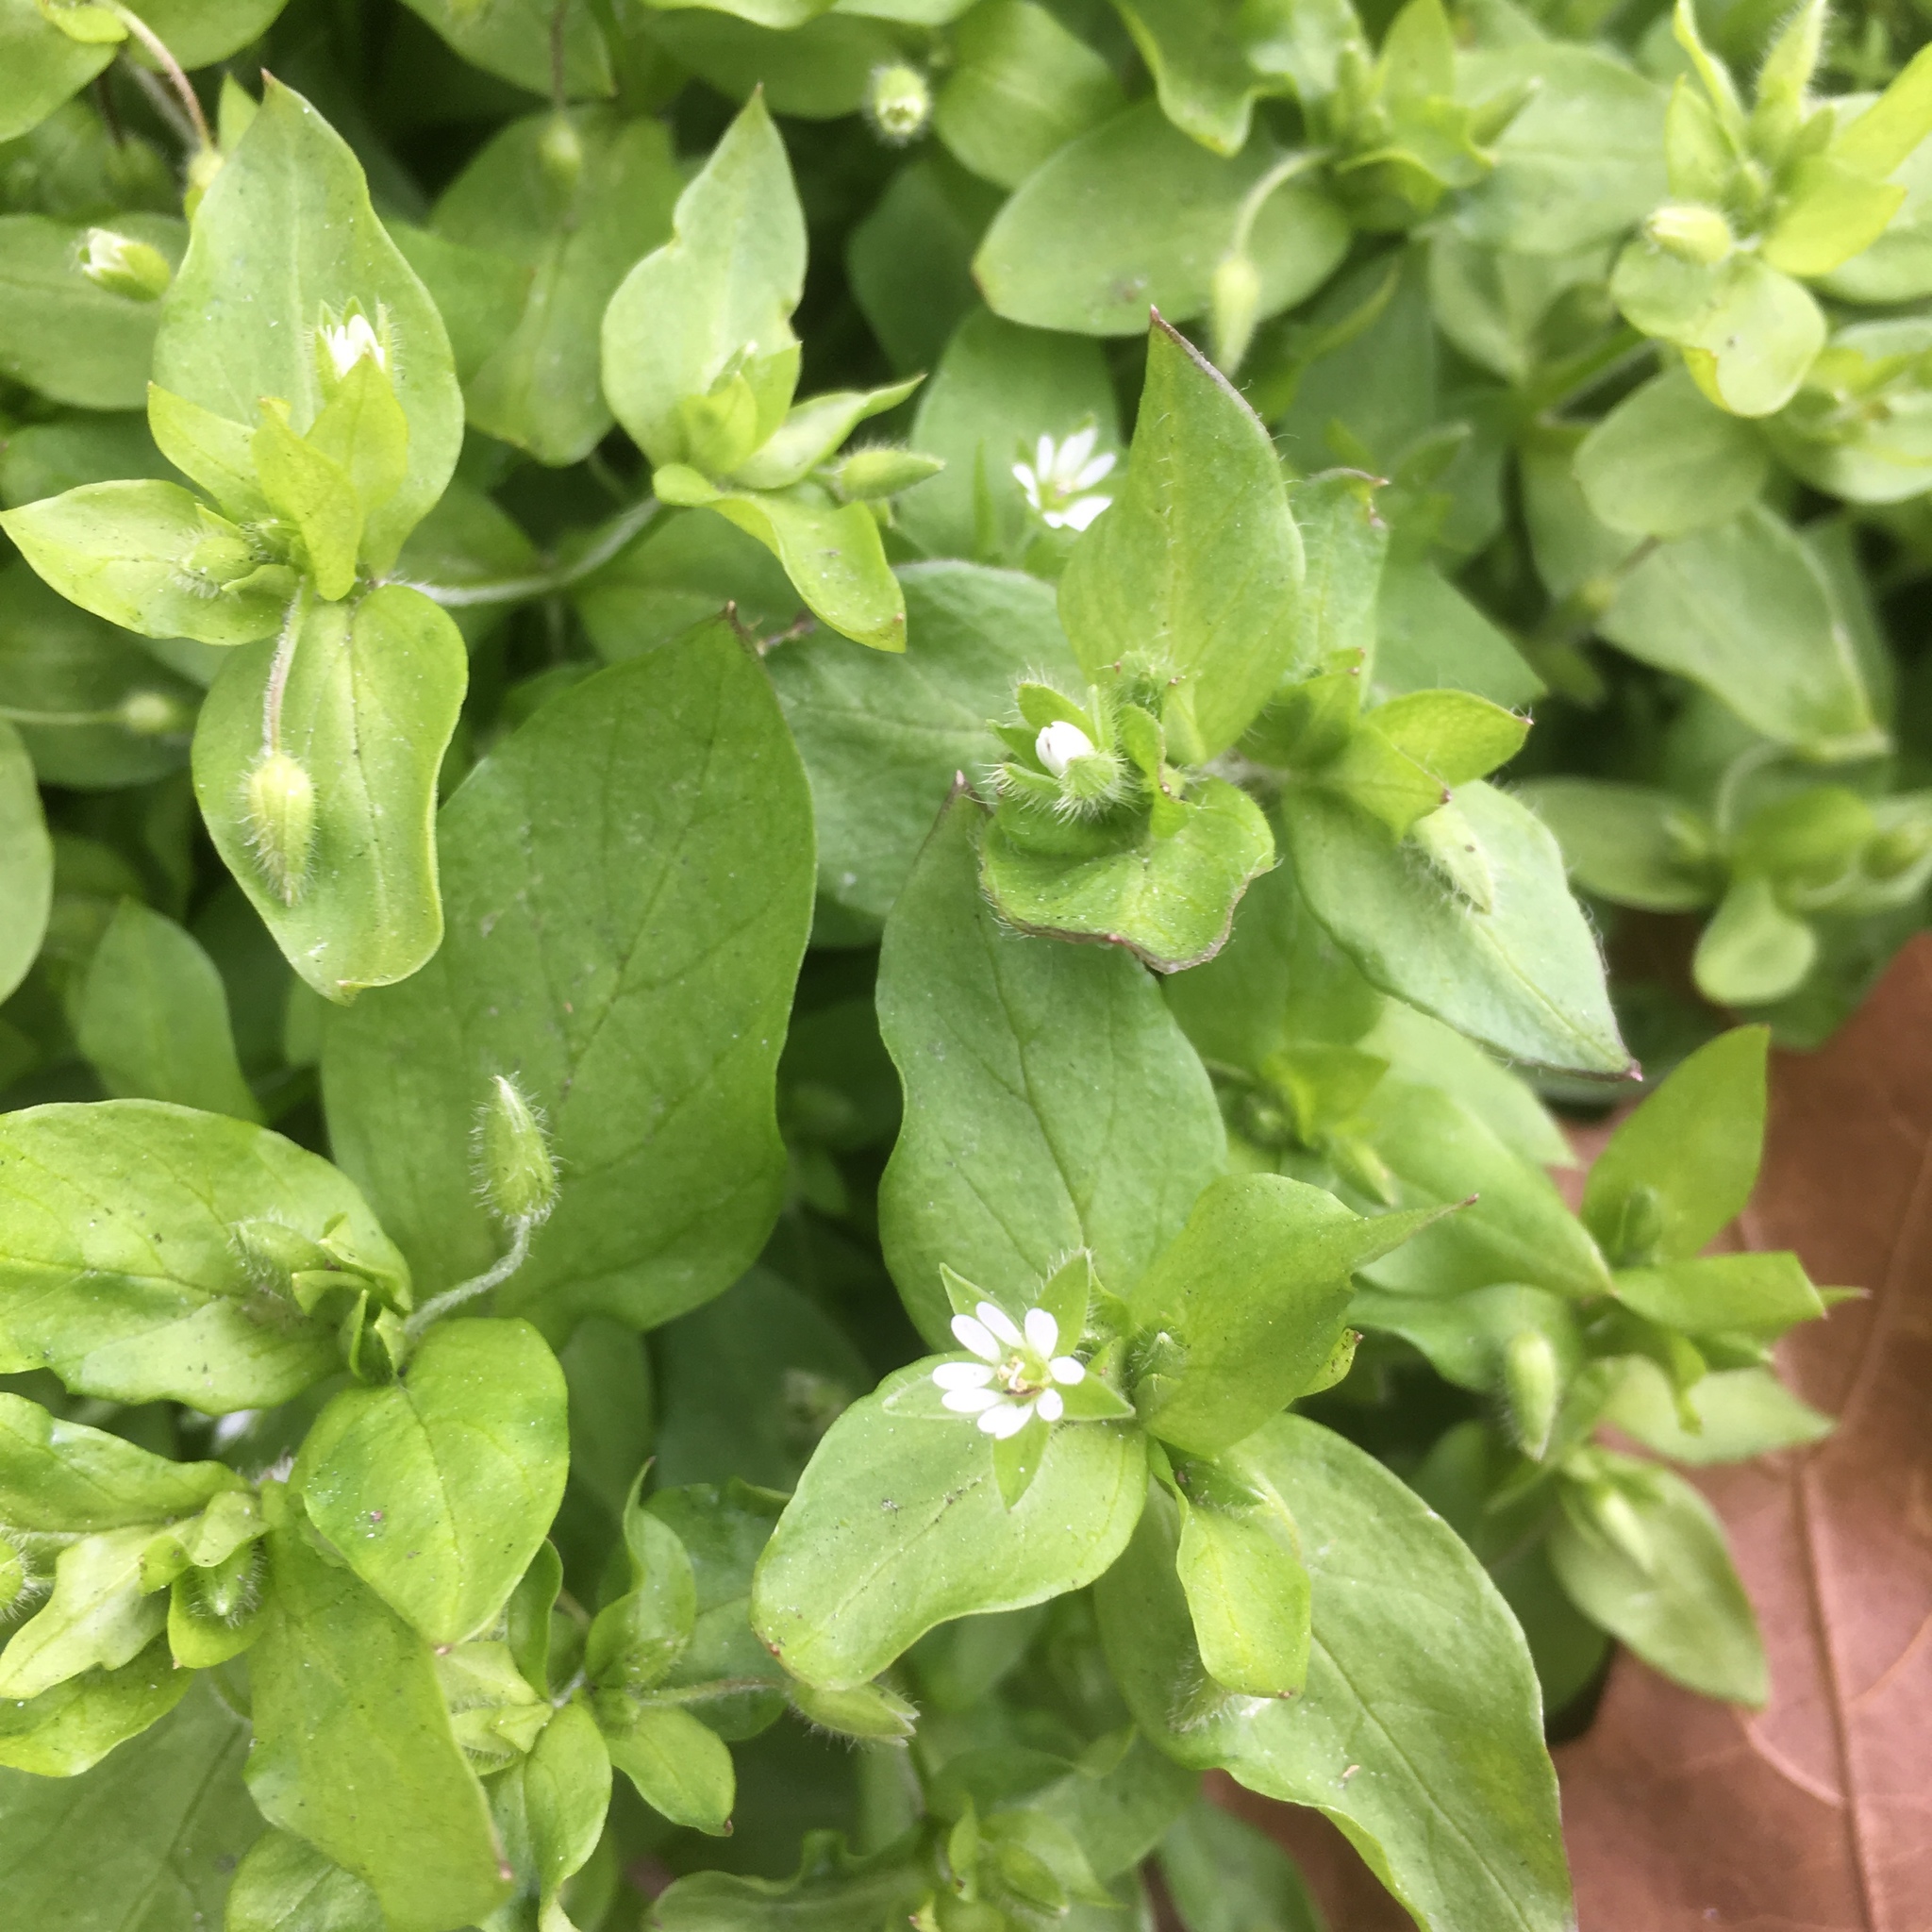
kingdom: Plantae
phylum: Tracheophyta
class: Magnoliopsida
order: Caryophyllales
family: Caryophyllaceae
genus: Stellaria
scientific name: Stellaria media
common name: Common chickweed
